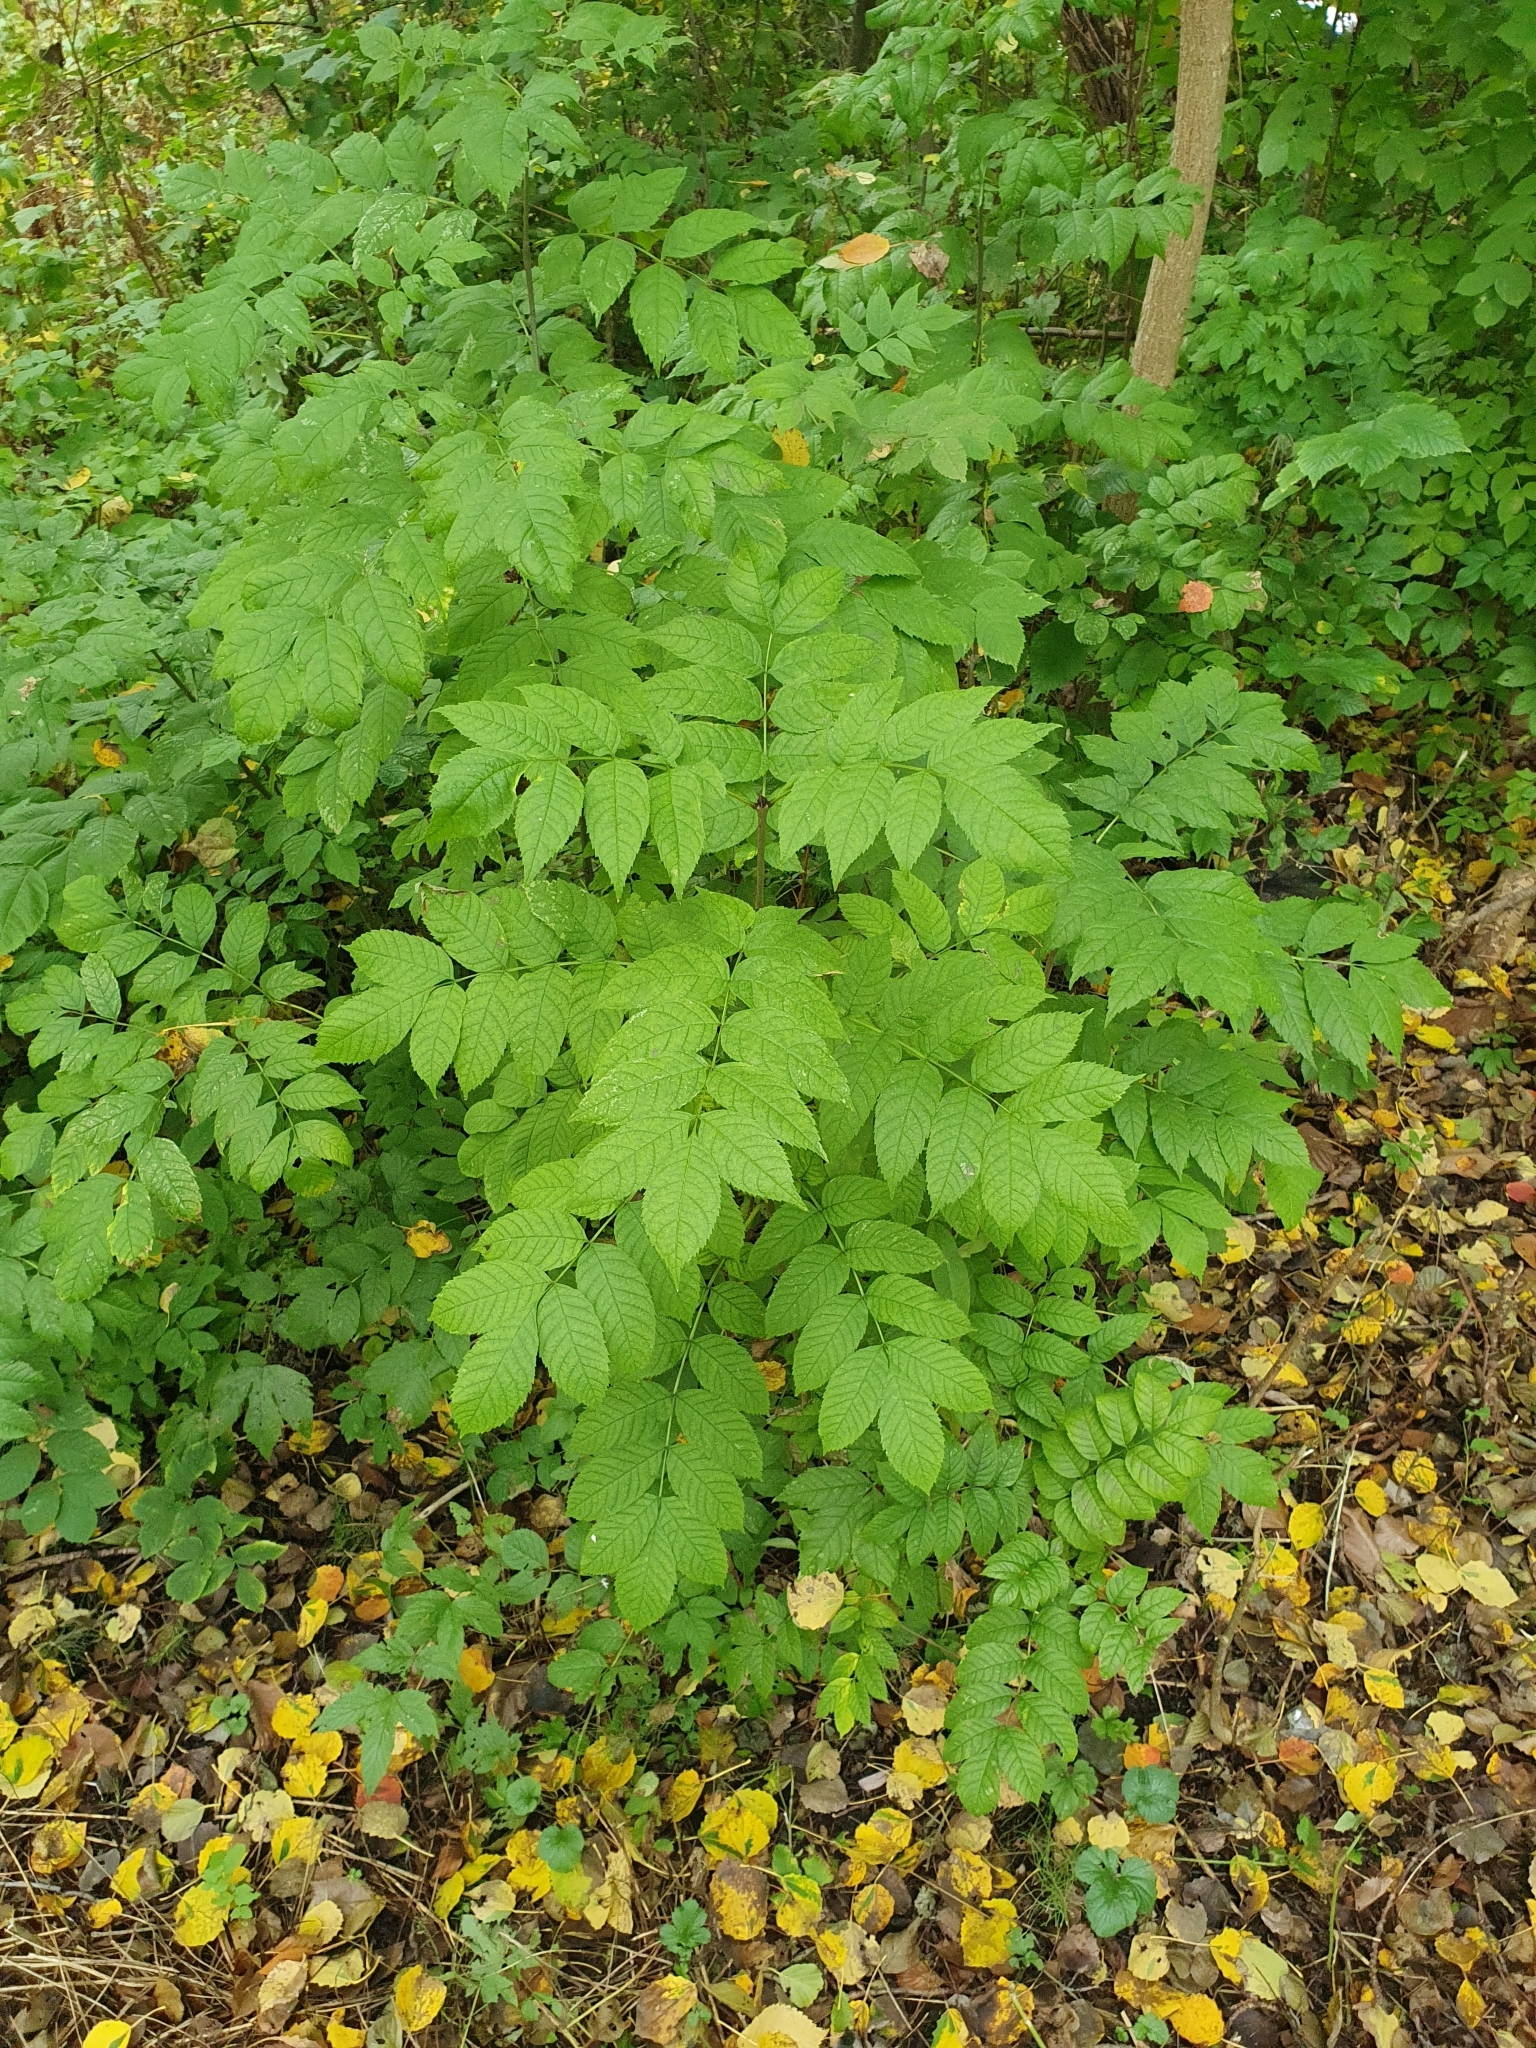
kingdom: Plantae
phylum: Tracheophyta
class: Magnoliopsida
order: Lamiales
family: Oleaceae
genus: Fraxinus
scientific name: Fraxinus excelsior
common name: European ash
